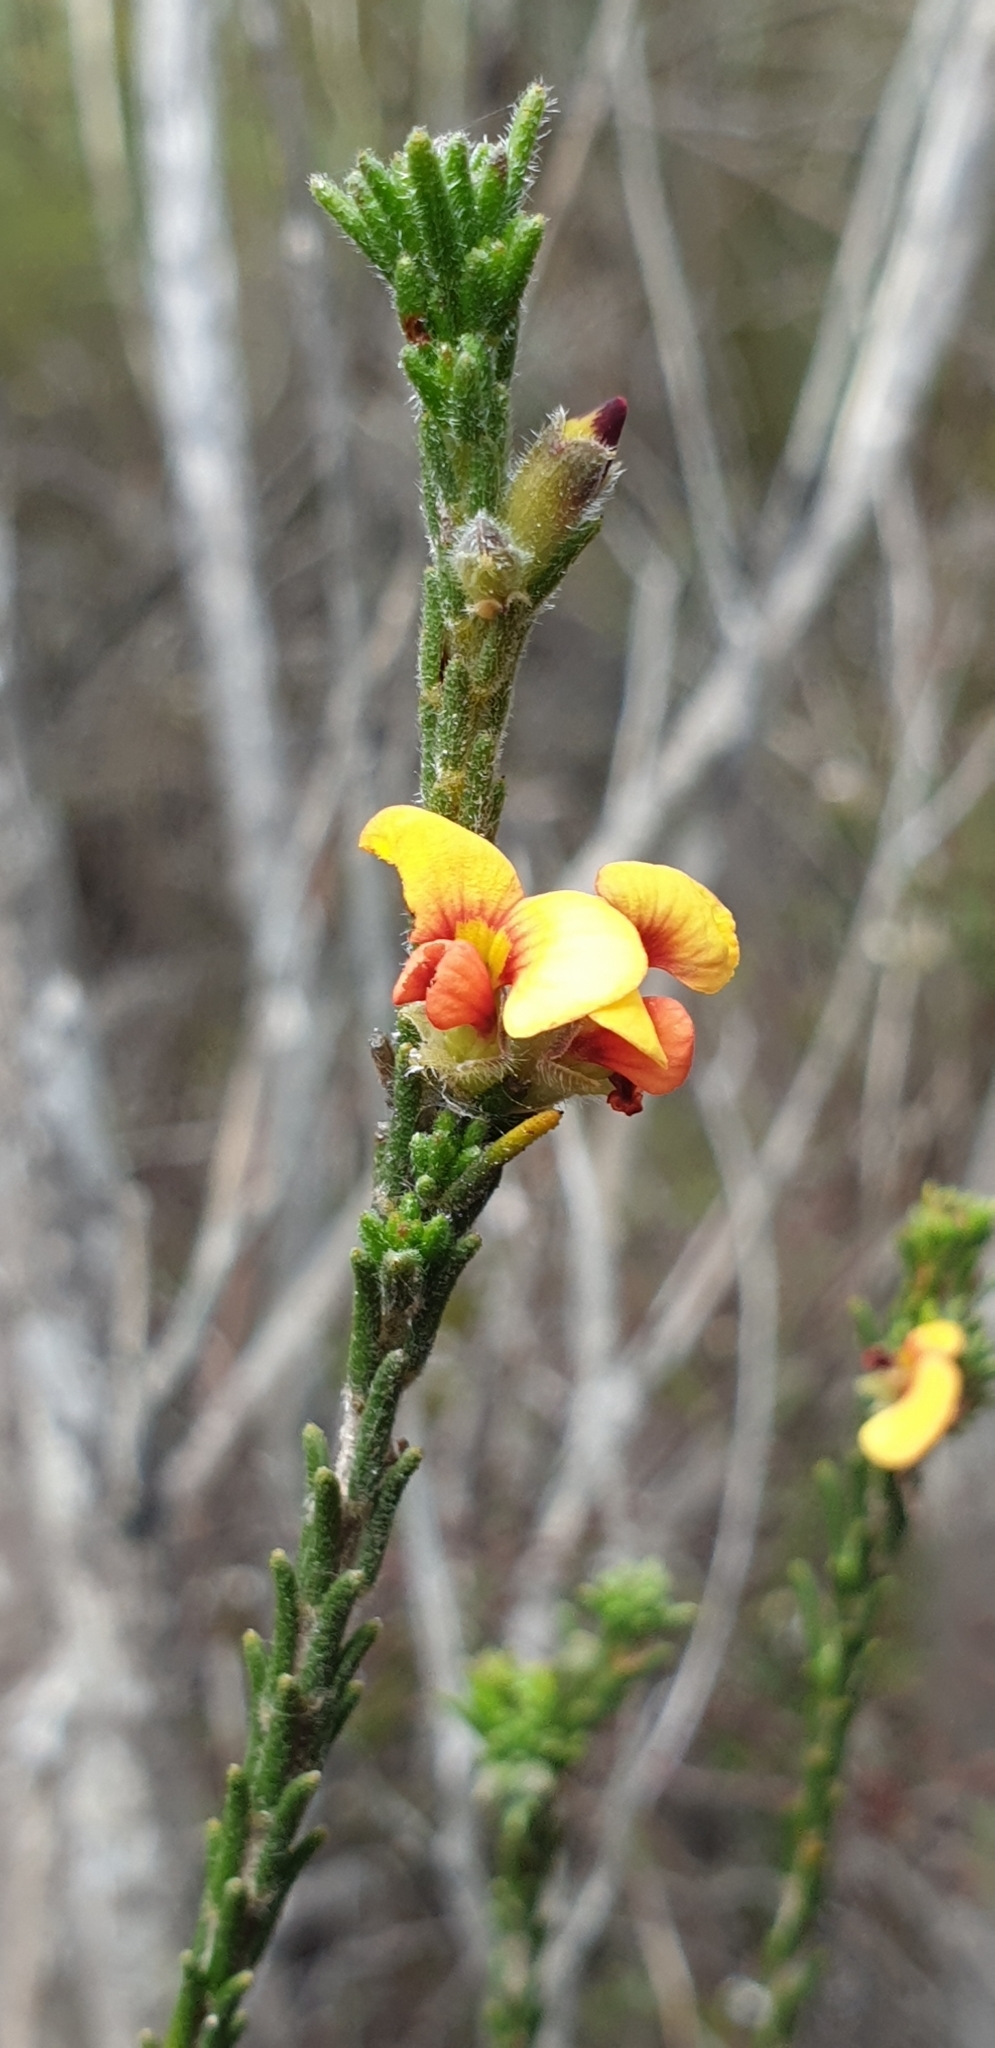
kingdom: Plantae
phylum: Tracheophyta
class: Magnoliopsida
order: Fabales
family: Fabaceae
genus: Eutaxia
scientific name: Eutaxia microphylla
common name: Mallee bush-pea
